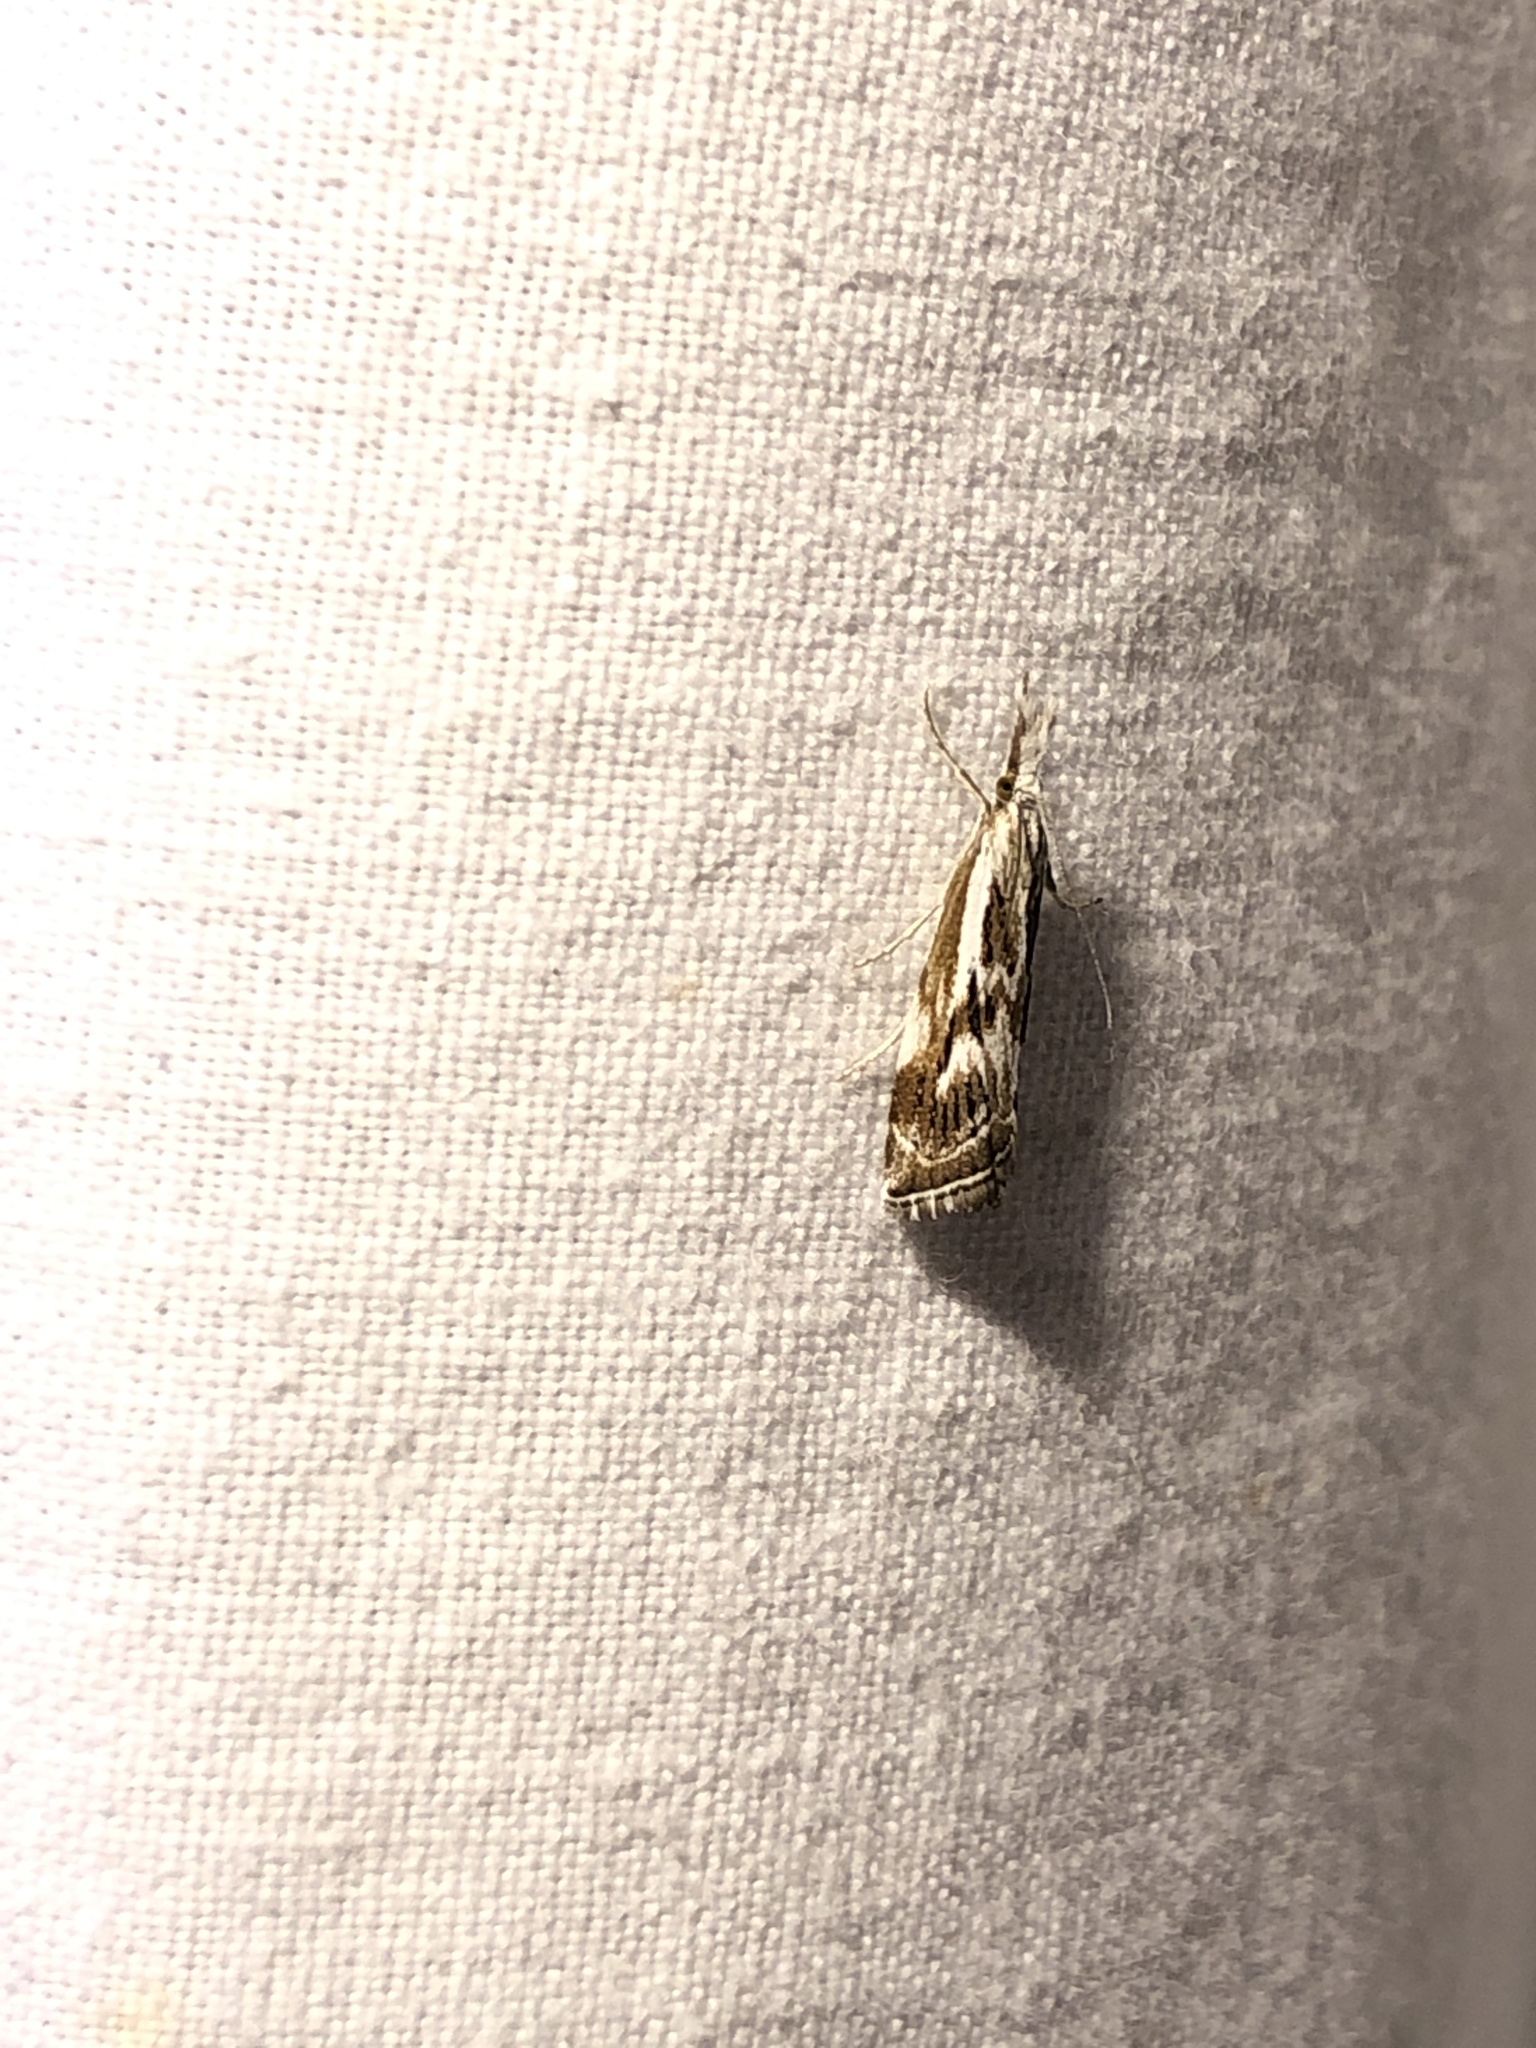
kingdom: Animalia
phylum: Arthropoda
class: Insecta
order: Lepidoptera
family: Crambidae
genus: Catoptria
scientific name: Catoptria oregonicus
